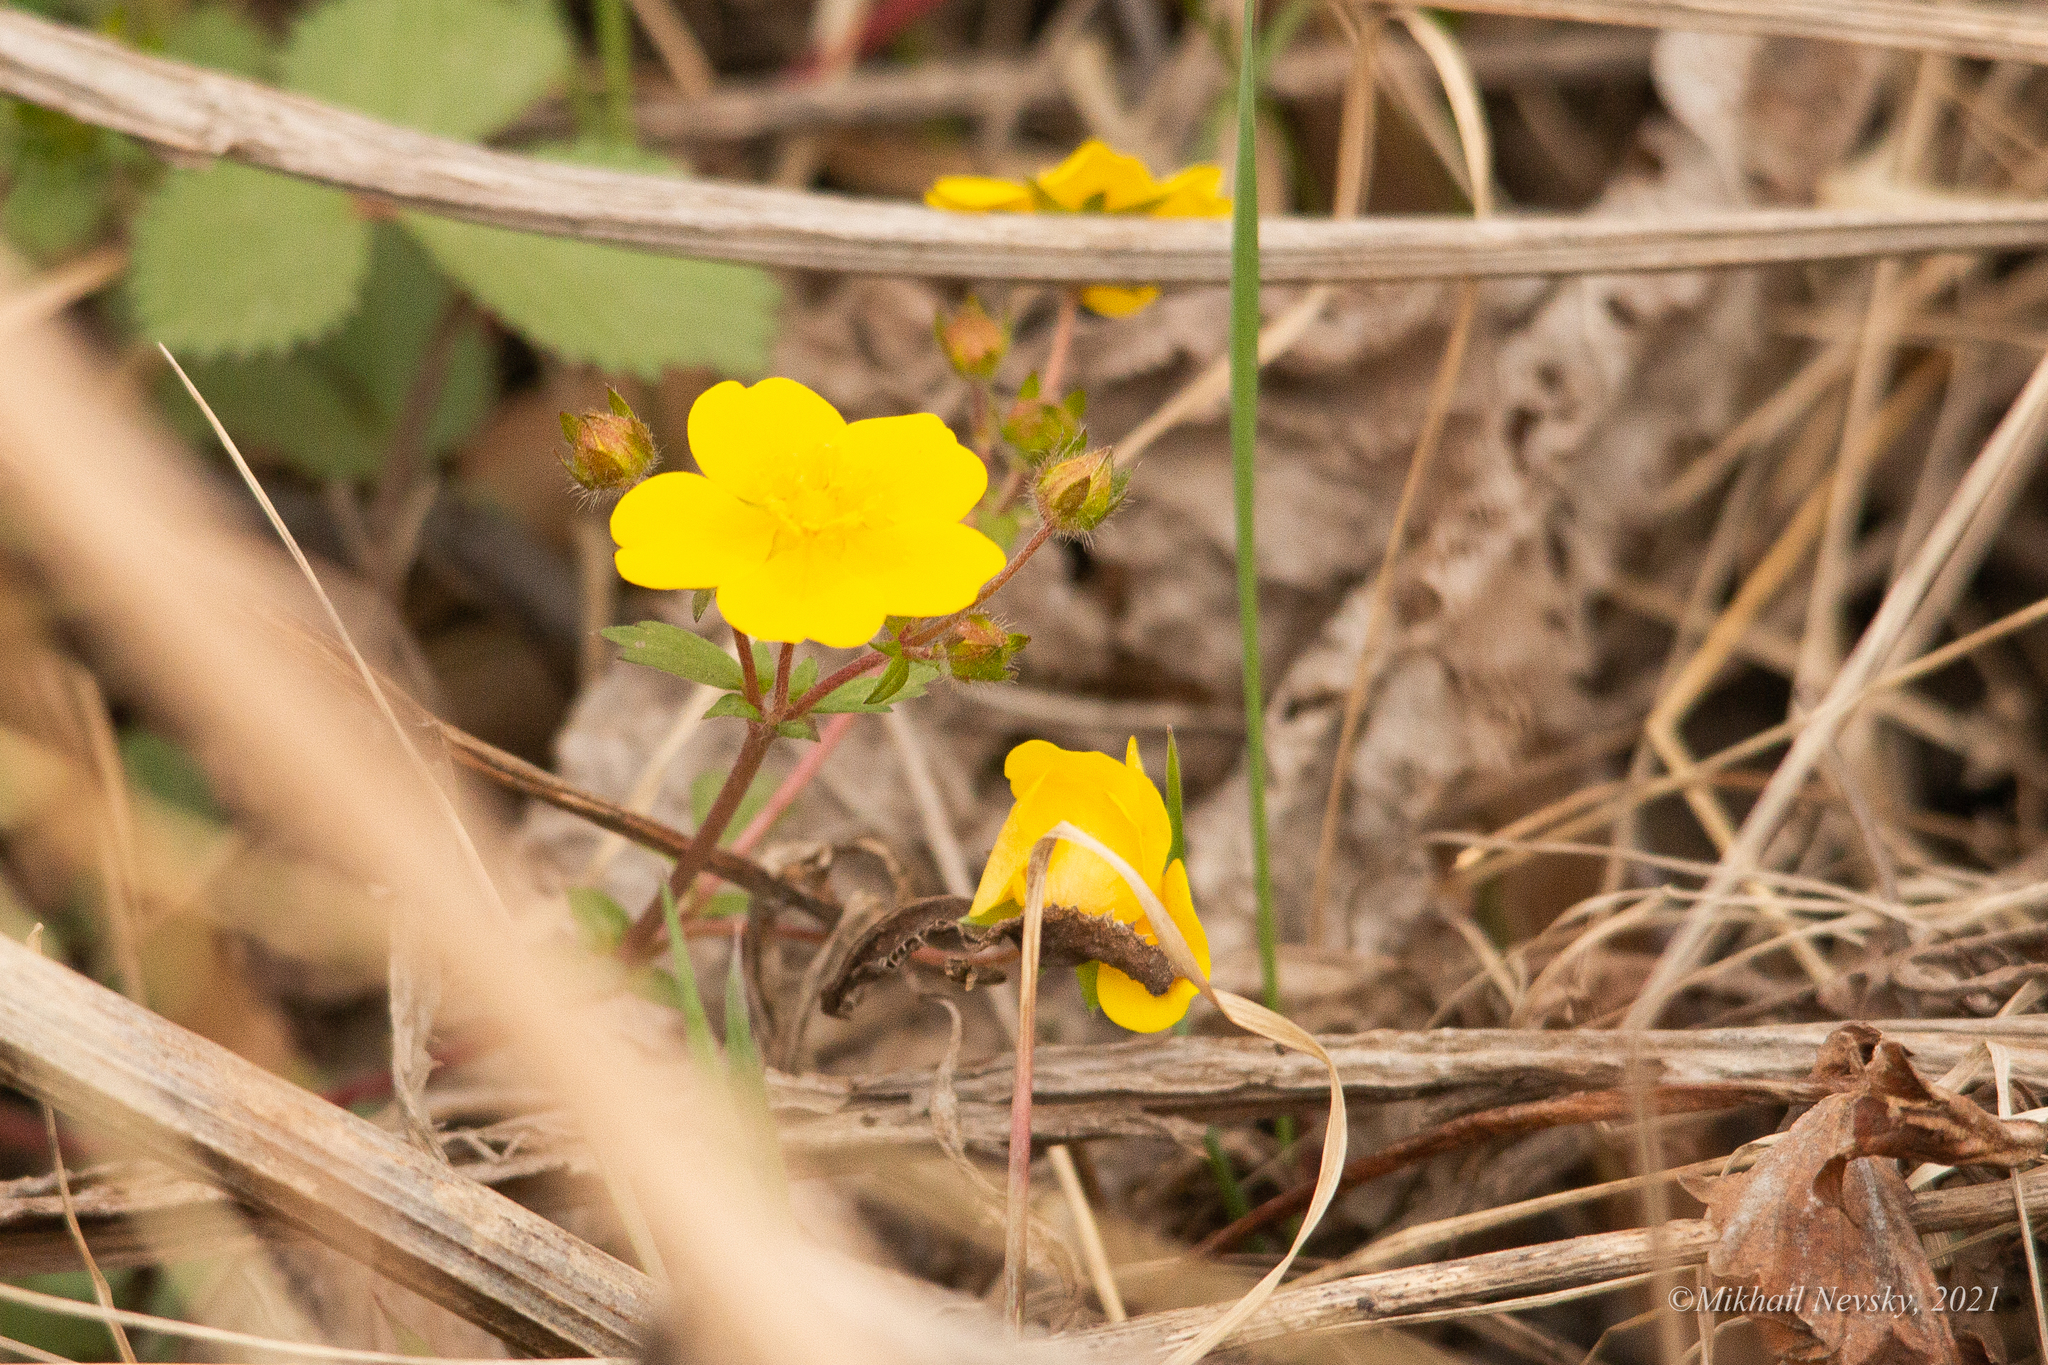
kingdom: Plantae
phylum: Tracheophyta
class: Magnoliopsida
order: Rosales
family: Rosaceae
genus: Potentilla
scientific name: Potentilla fragarioides
